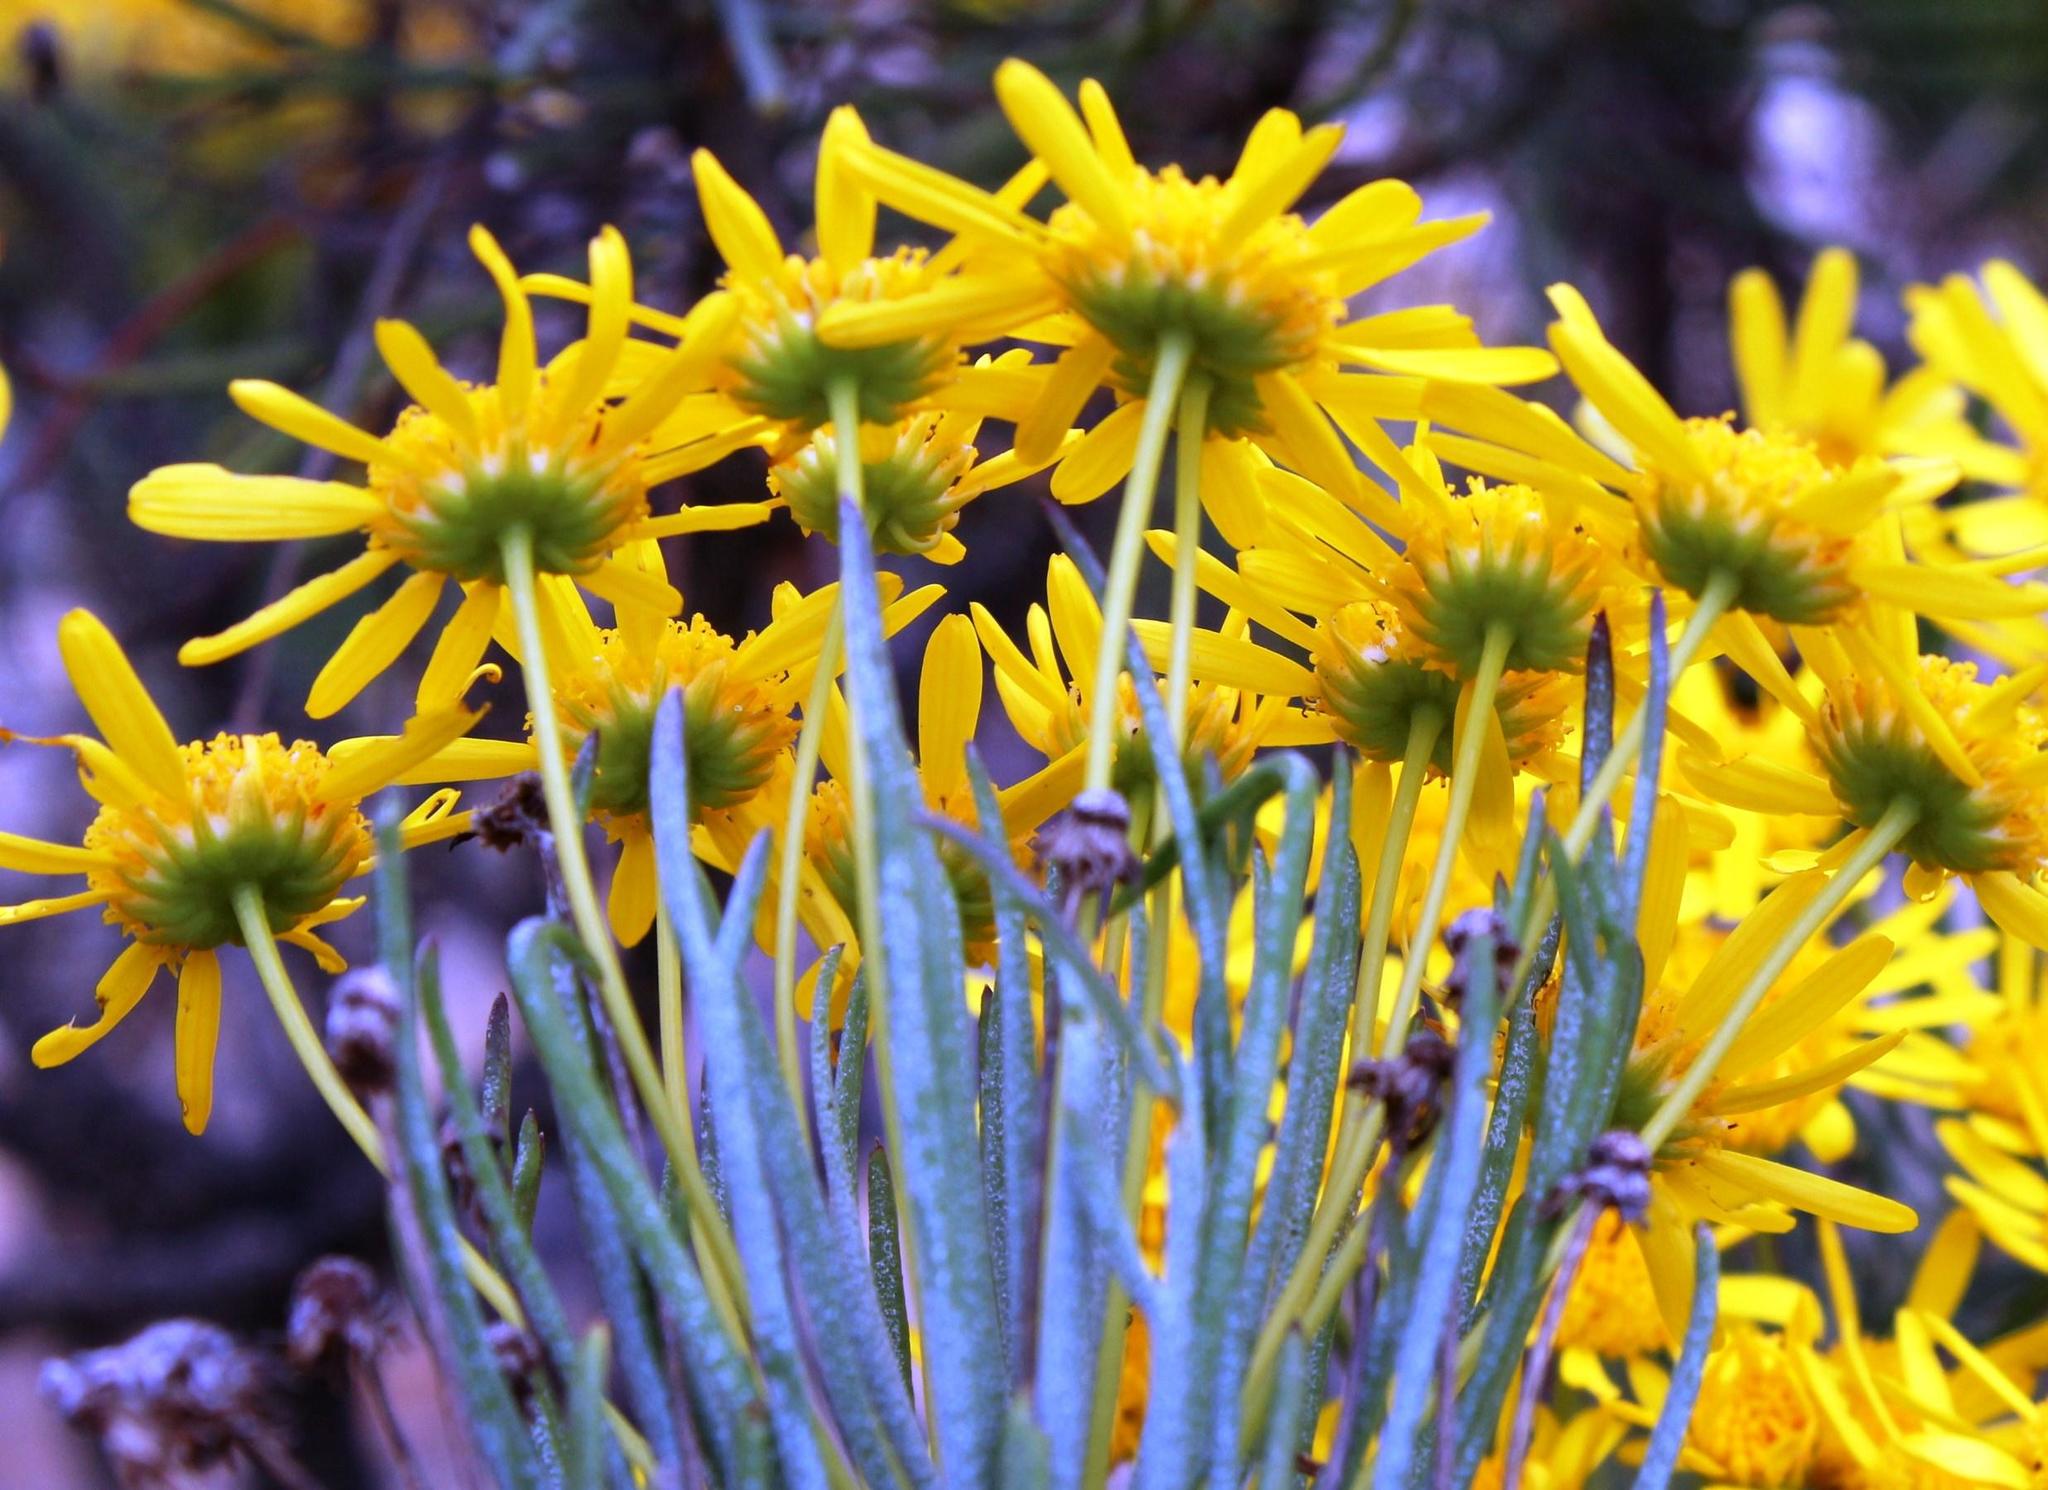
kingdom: Plantae
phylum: Tracheophyta
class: Magnoliopsida
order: Asterales
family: Asteraceae
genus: Euryops
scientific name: Euryops tenuissimus
